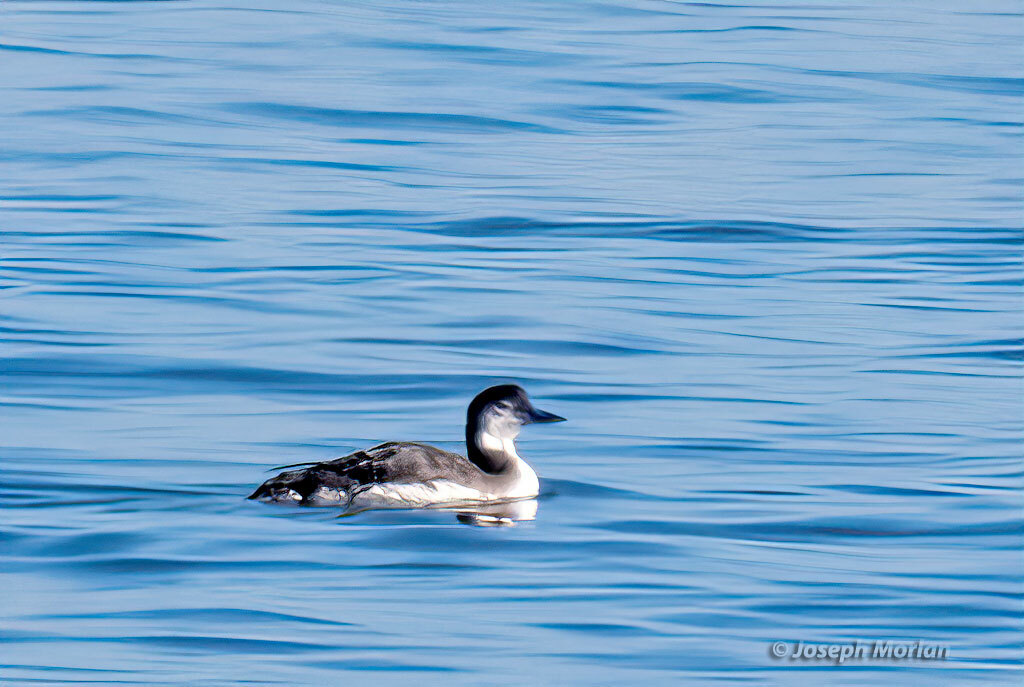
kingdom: Animalia
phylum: Chordata
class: Aves
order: Gaviiformes
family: Gaviidae
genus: Gavia
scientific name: Gavia immer
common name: Common loon
